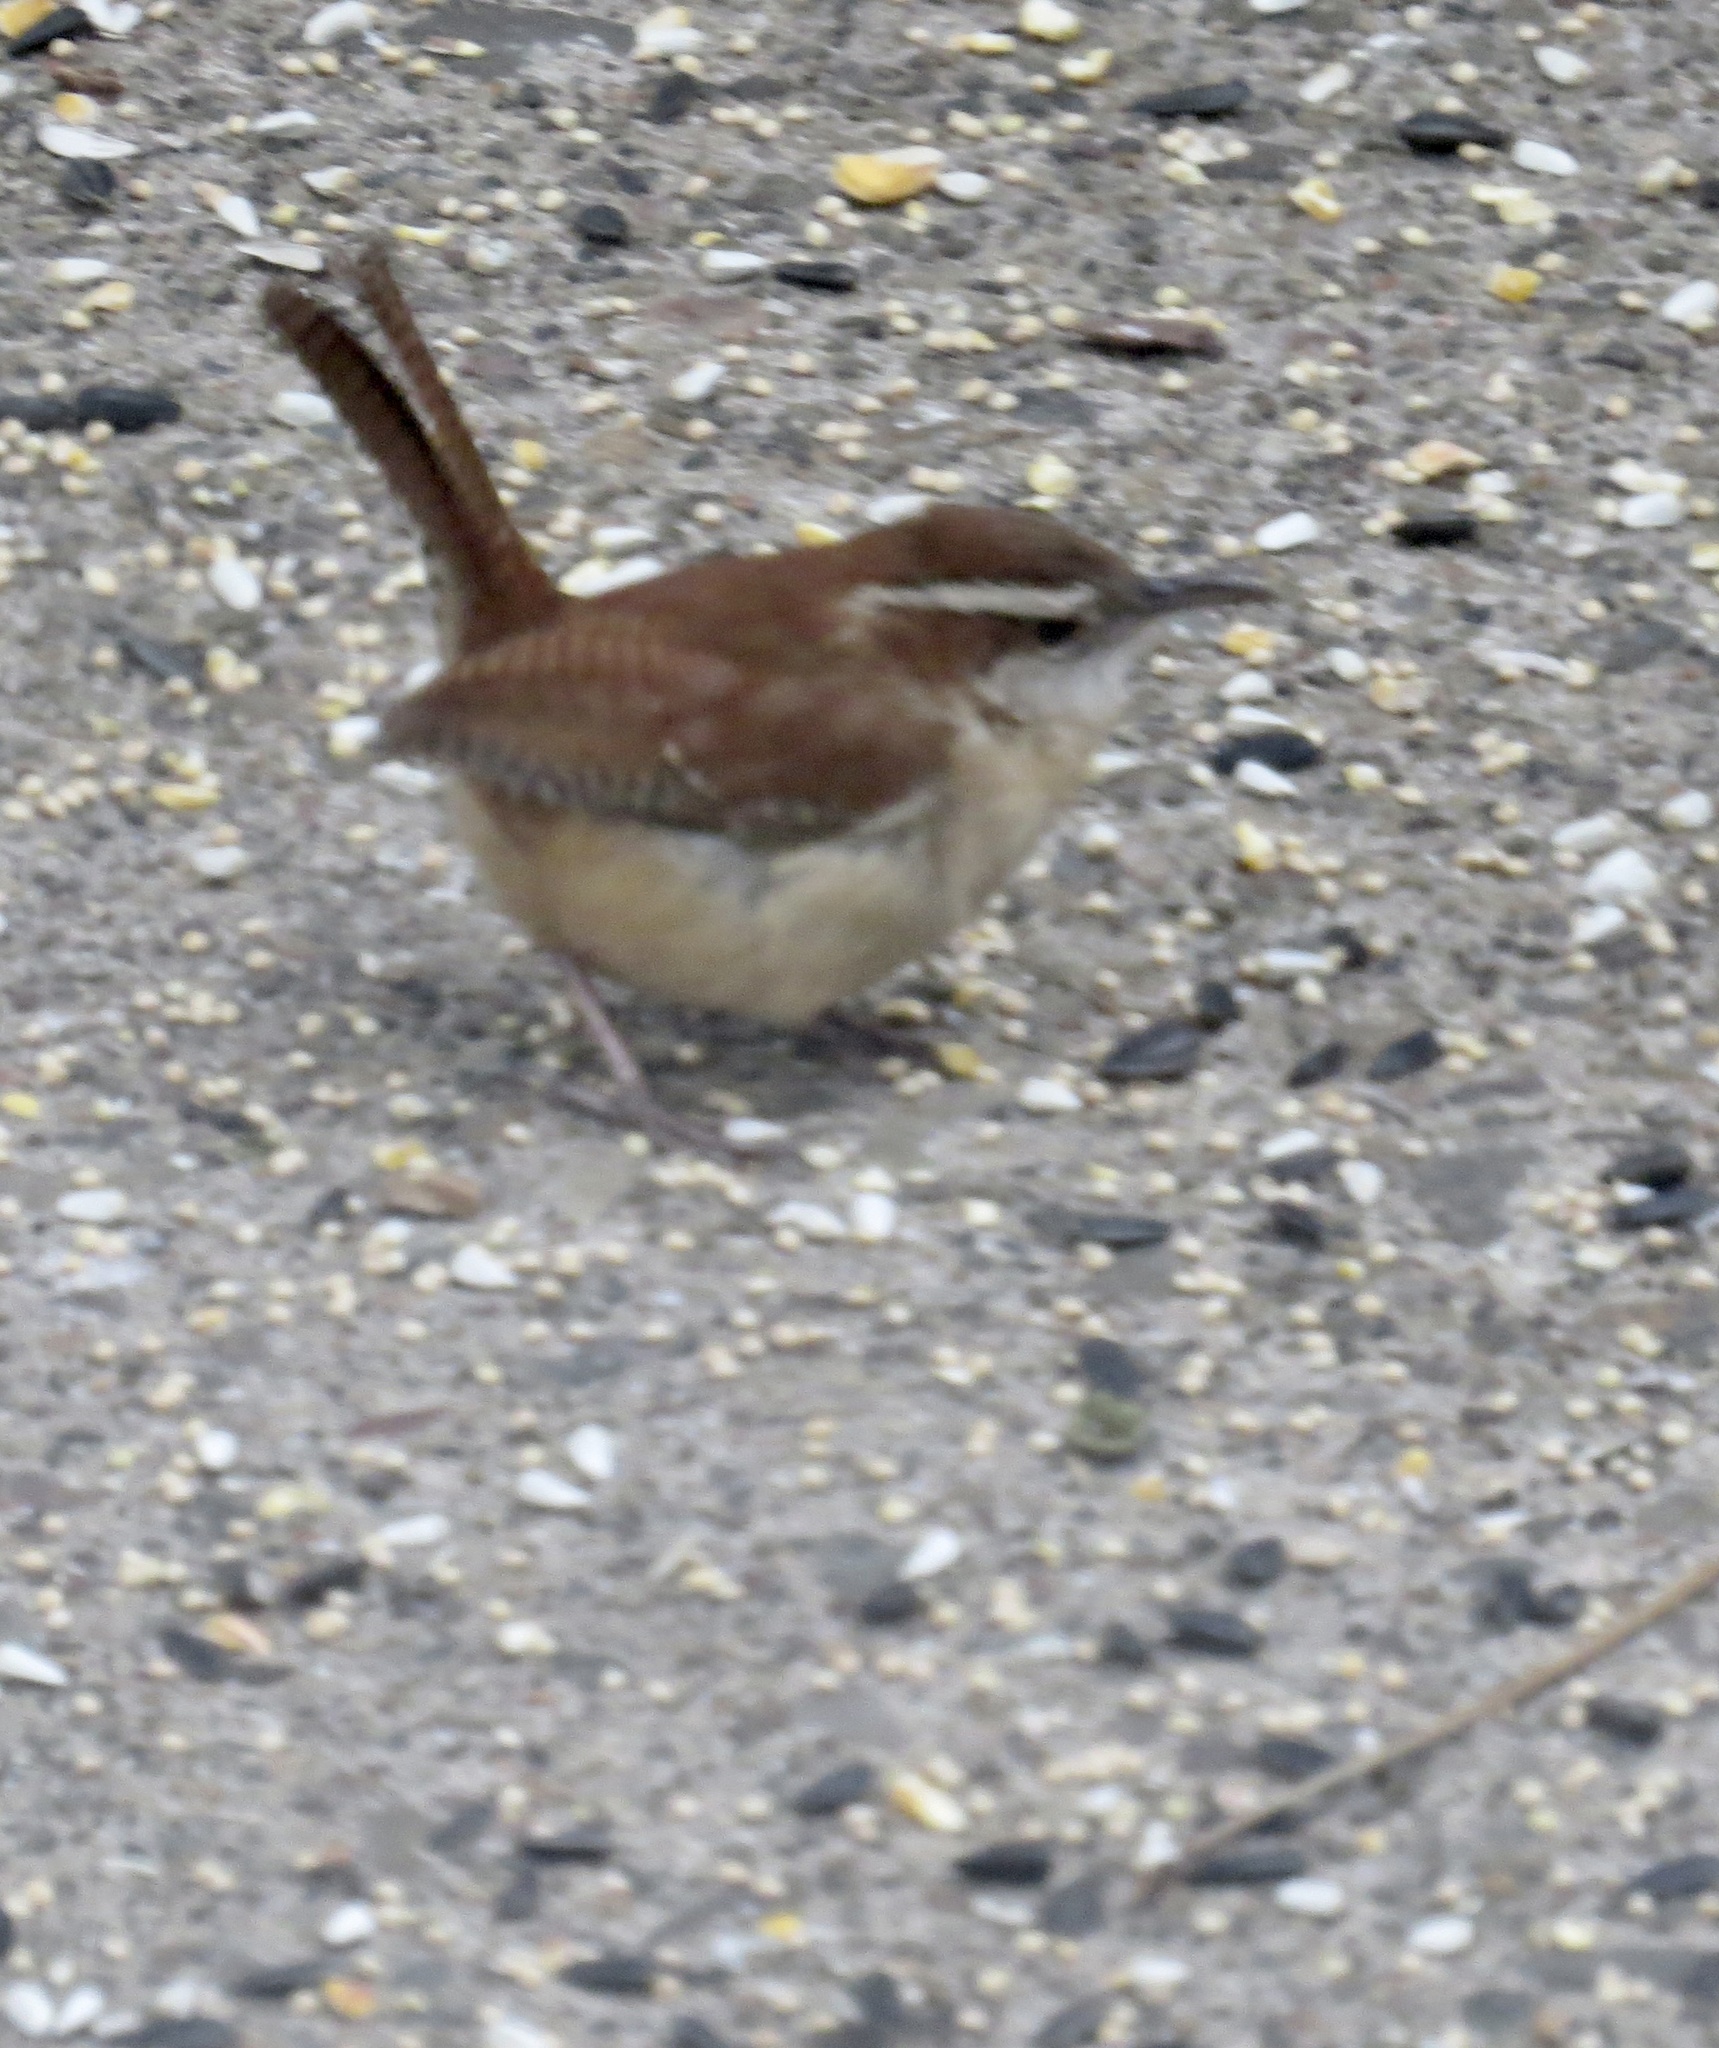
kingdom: Animalia
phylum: Chordata
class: Aves
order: Passeriformes
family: Troglodytidae
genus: Thryothorus
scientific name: Thryothorus ludovicianus
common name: Carolina wren
